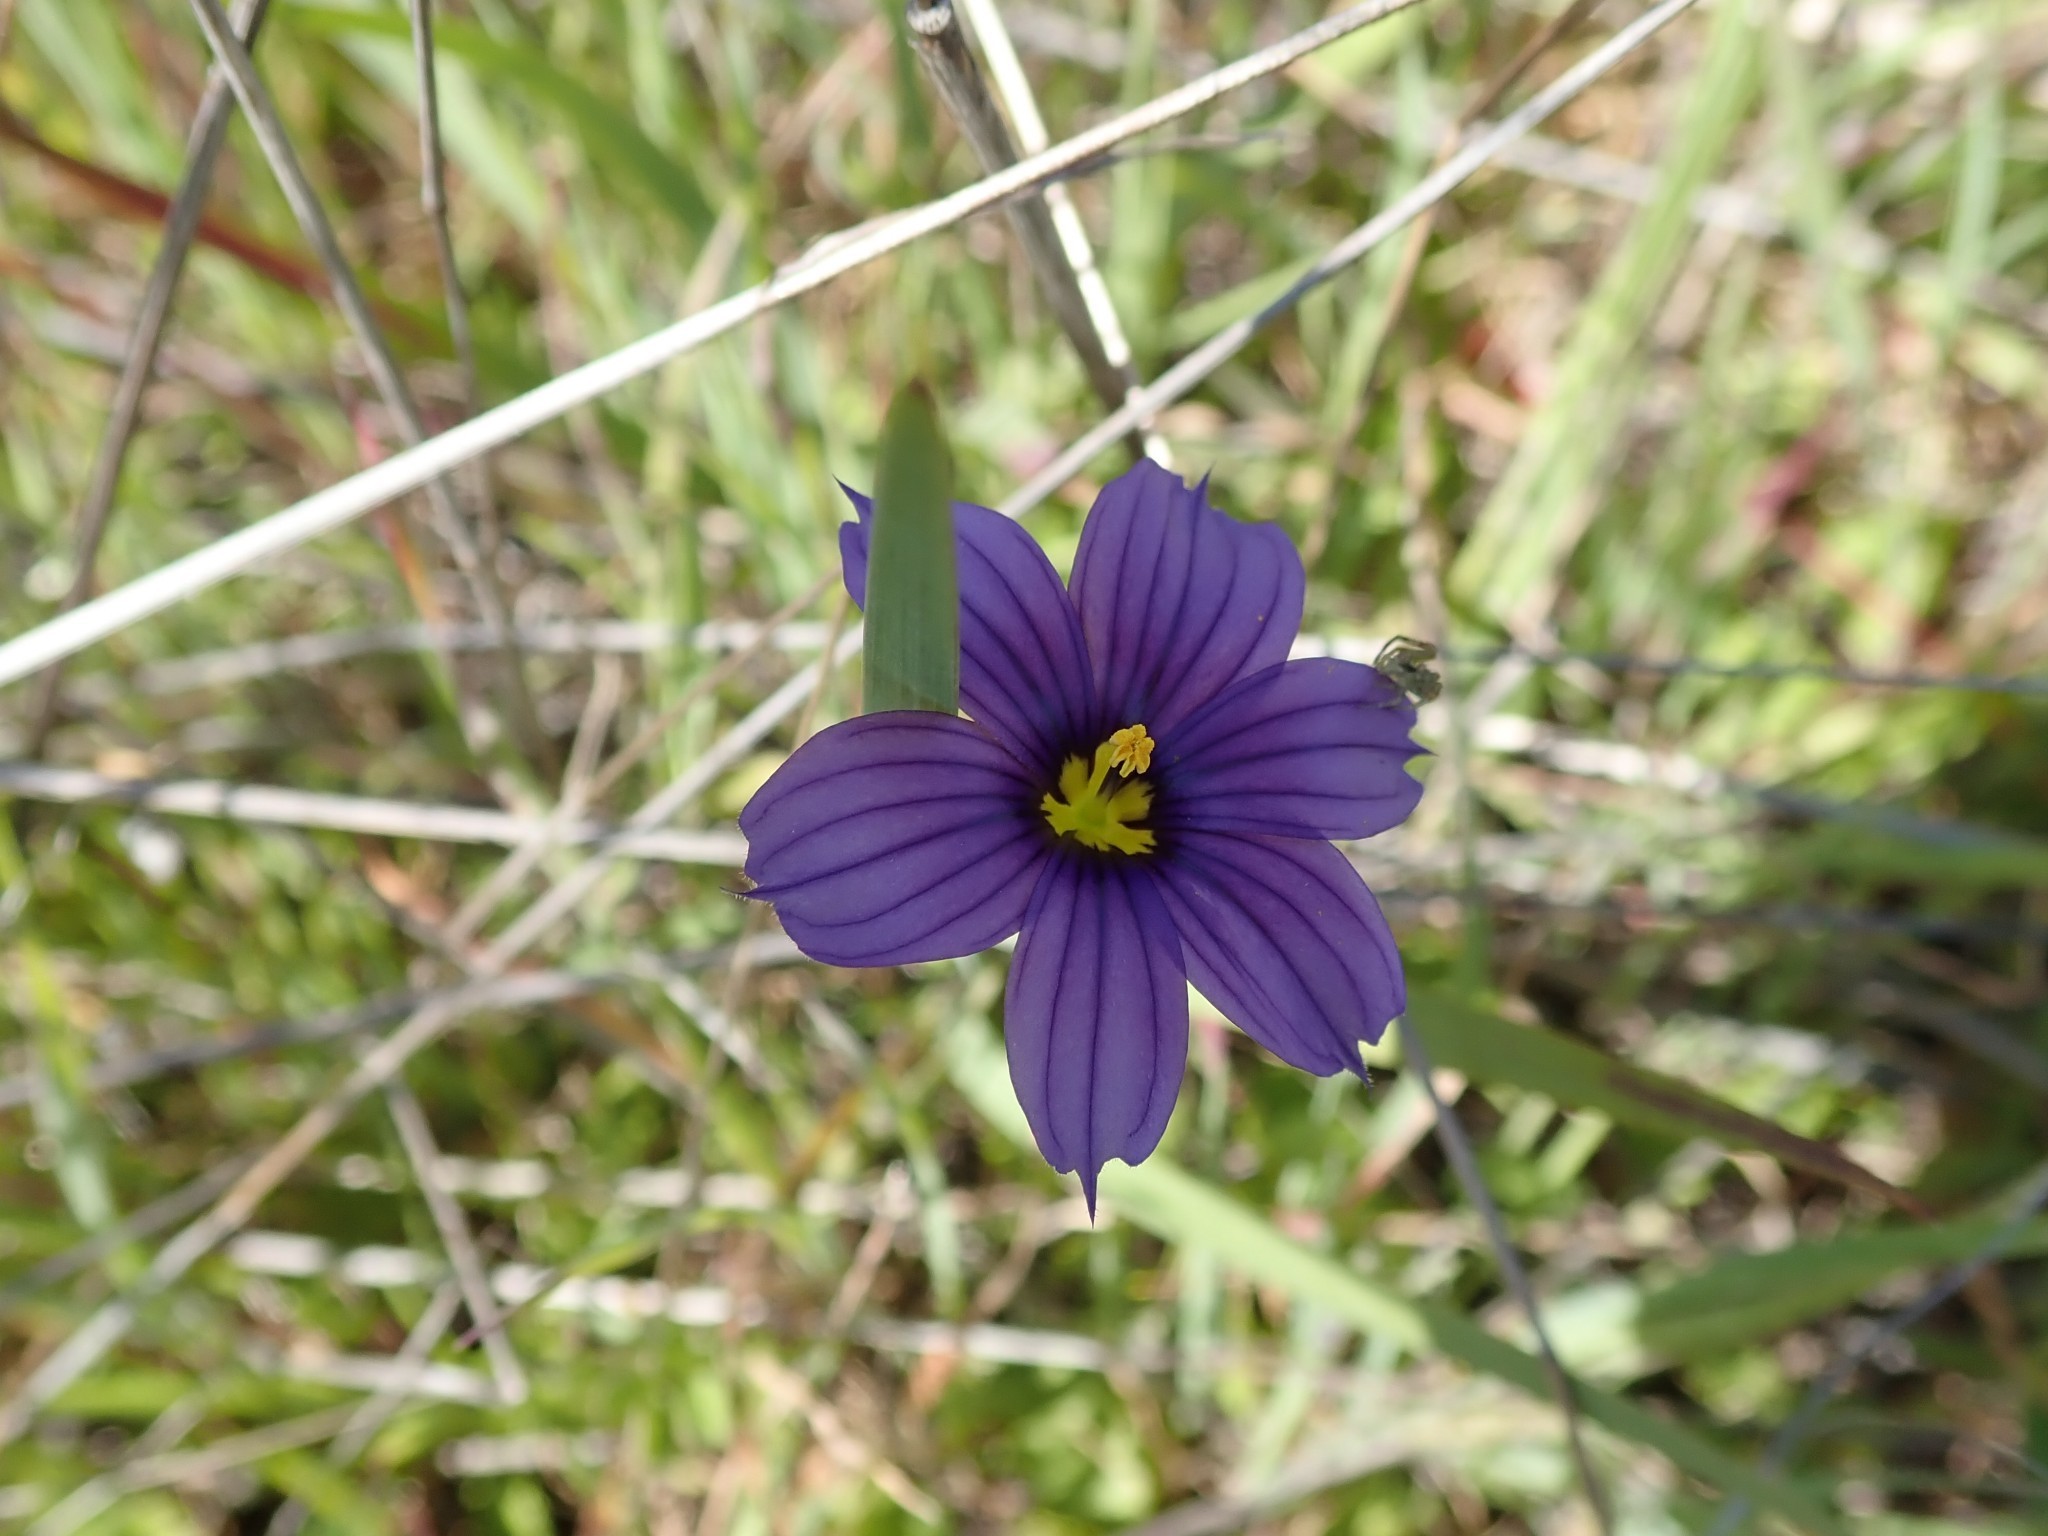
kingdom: Plantae
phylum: Tracheophyta
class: Liliopsida
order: Asparagales
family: Iridaceae
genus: Sisyrinchium
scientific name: Sisyrinchium bellum
